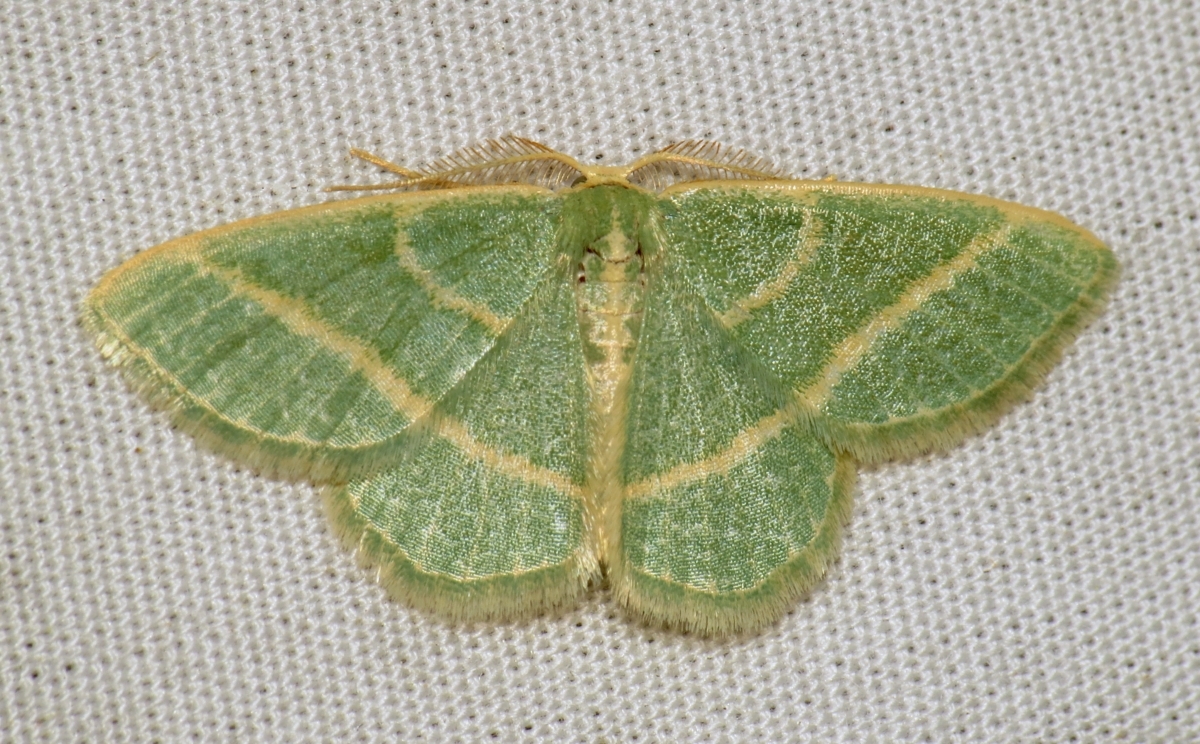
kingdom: Animalia
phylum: Arthropoda
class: Insecta
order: Lepidoptera
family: Geometridae
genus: Chlorochlamys
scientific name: Chlorochlamys chloroleucaria
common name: Blackberry looper
